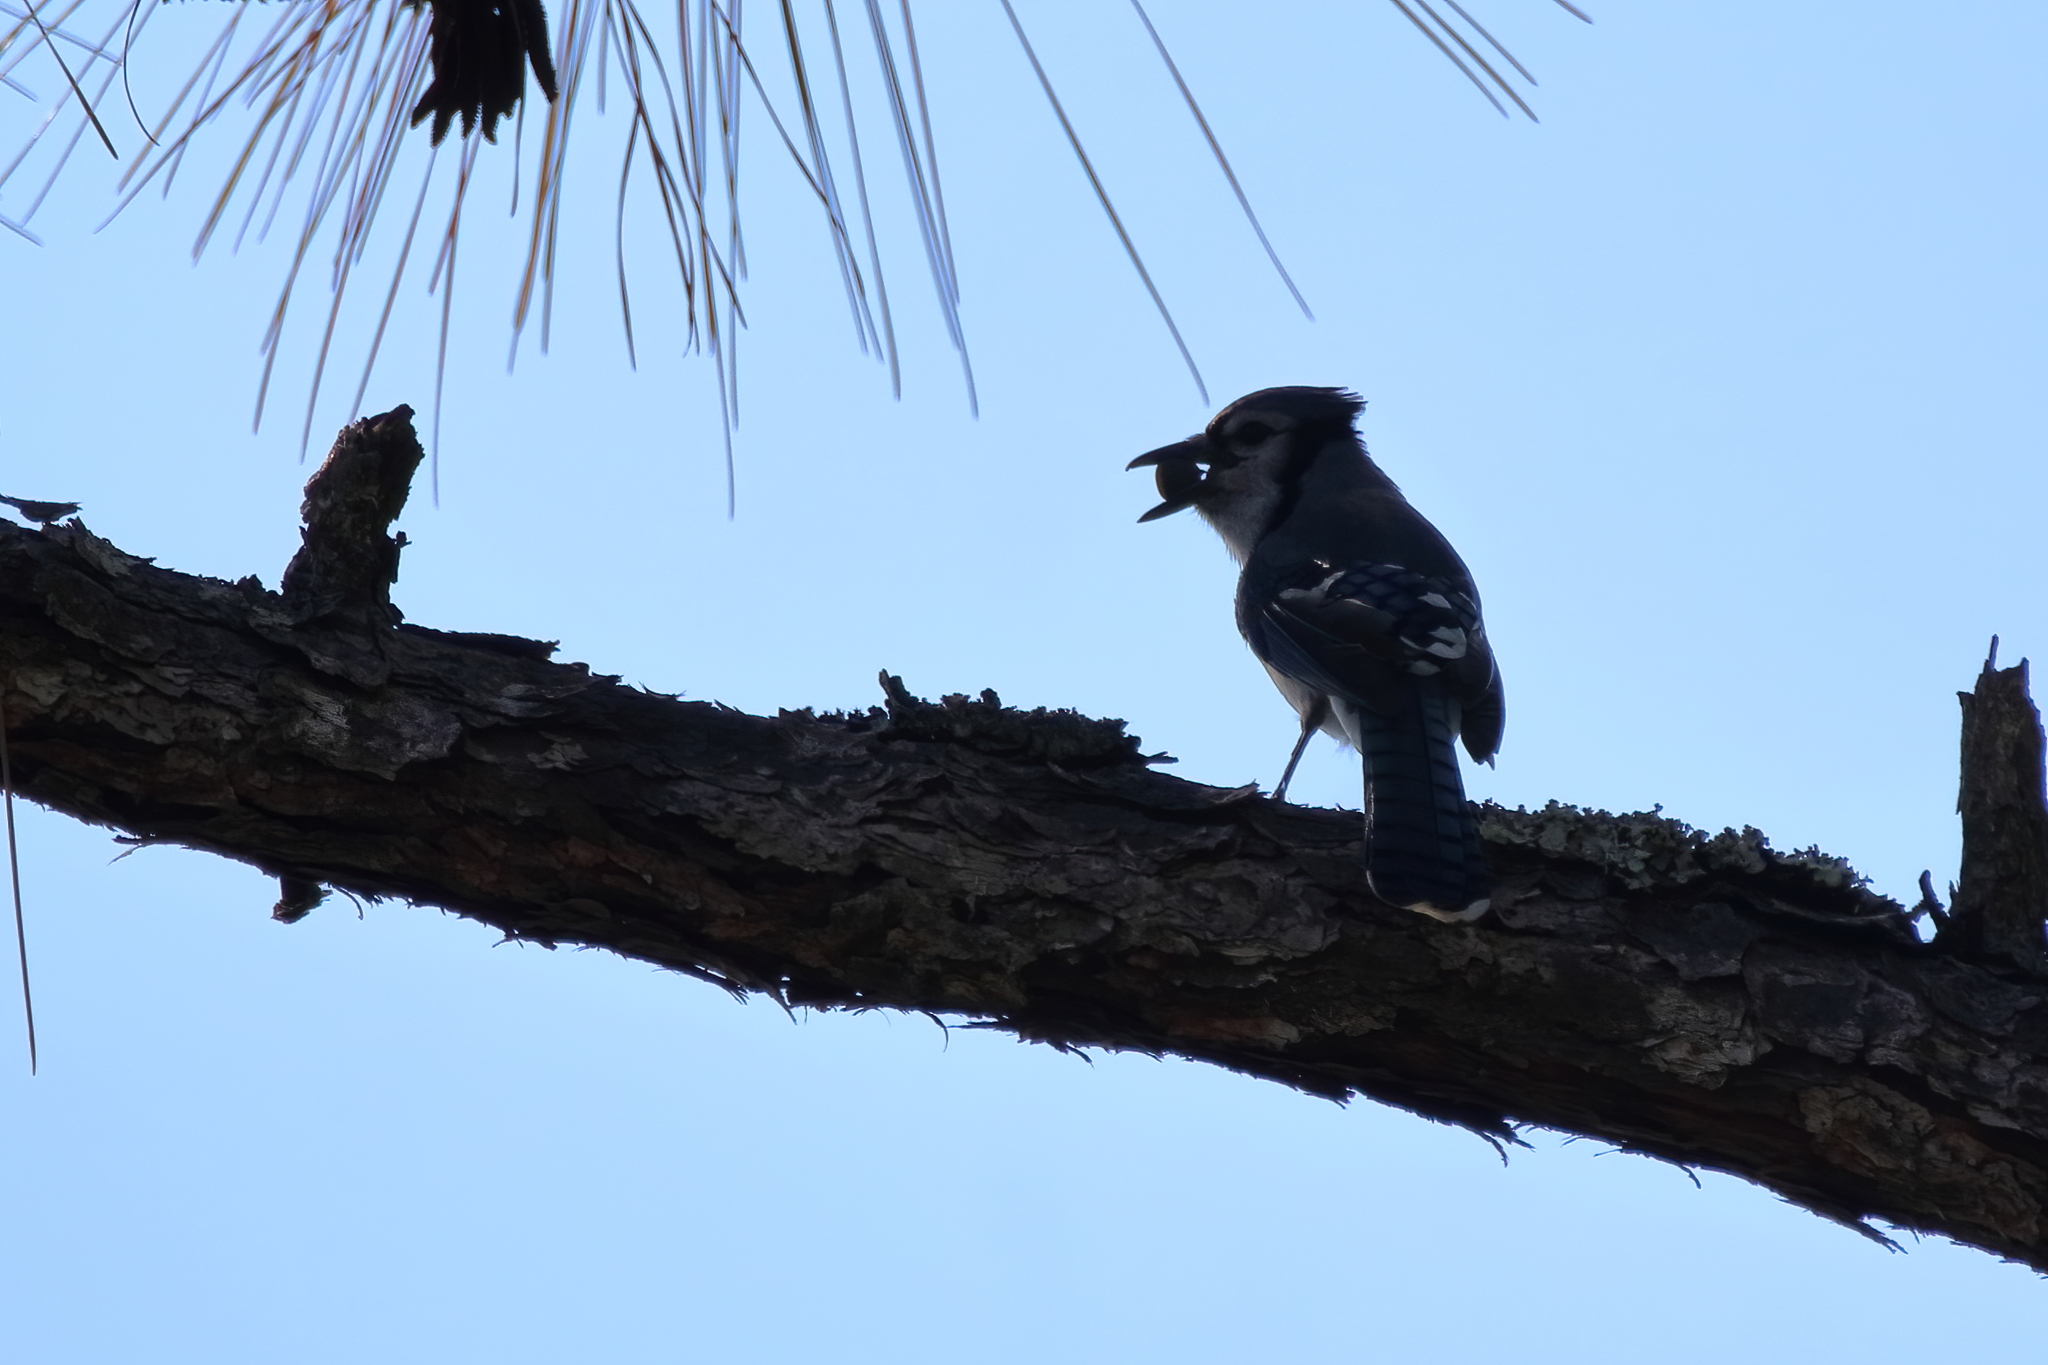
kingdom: Animalia
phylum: Chordata
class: Aves
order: Passeriformes
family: Corvidae
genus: Cyanocitta
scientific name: Cyanocitta cristata
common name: Blue jay
